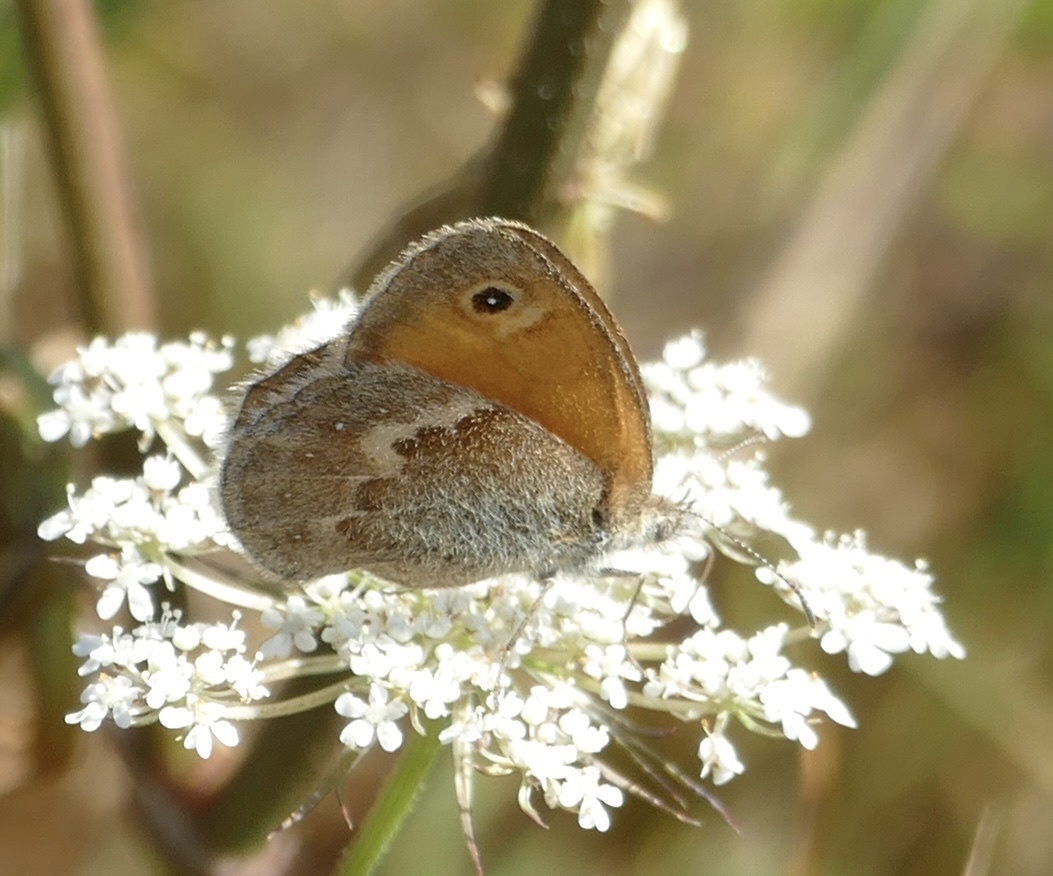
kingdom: Animalia
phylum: Arthropoda
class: Insecta
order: Lepidoptera
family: Nymphalidae
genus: Coenonympha
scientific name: Coenonympha pamphilus
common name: Small heath
